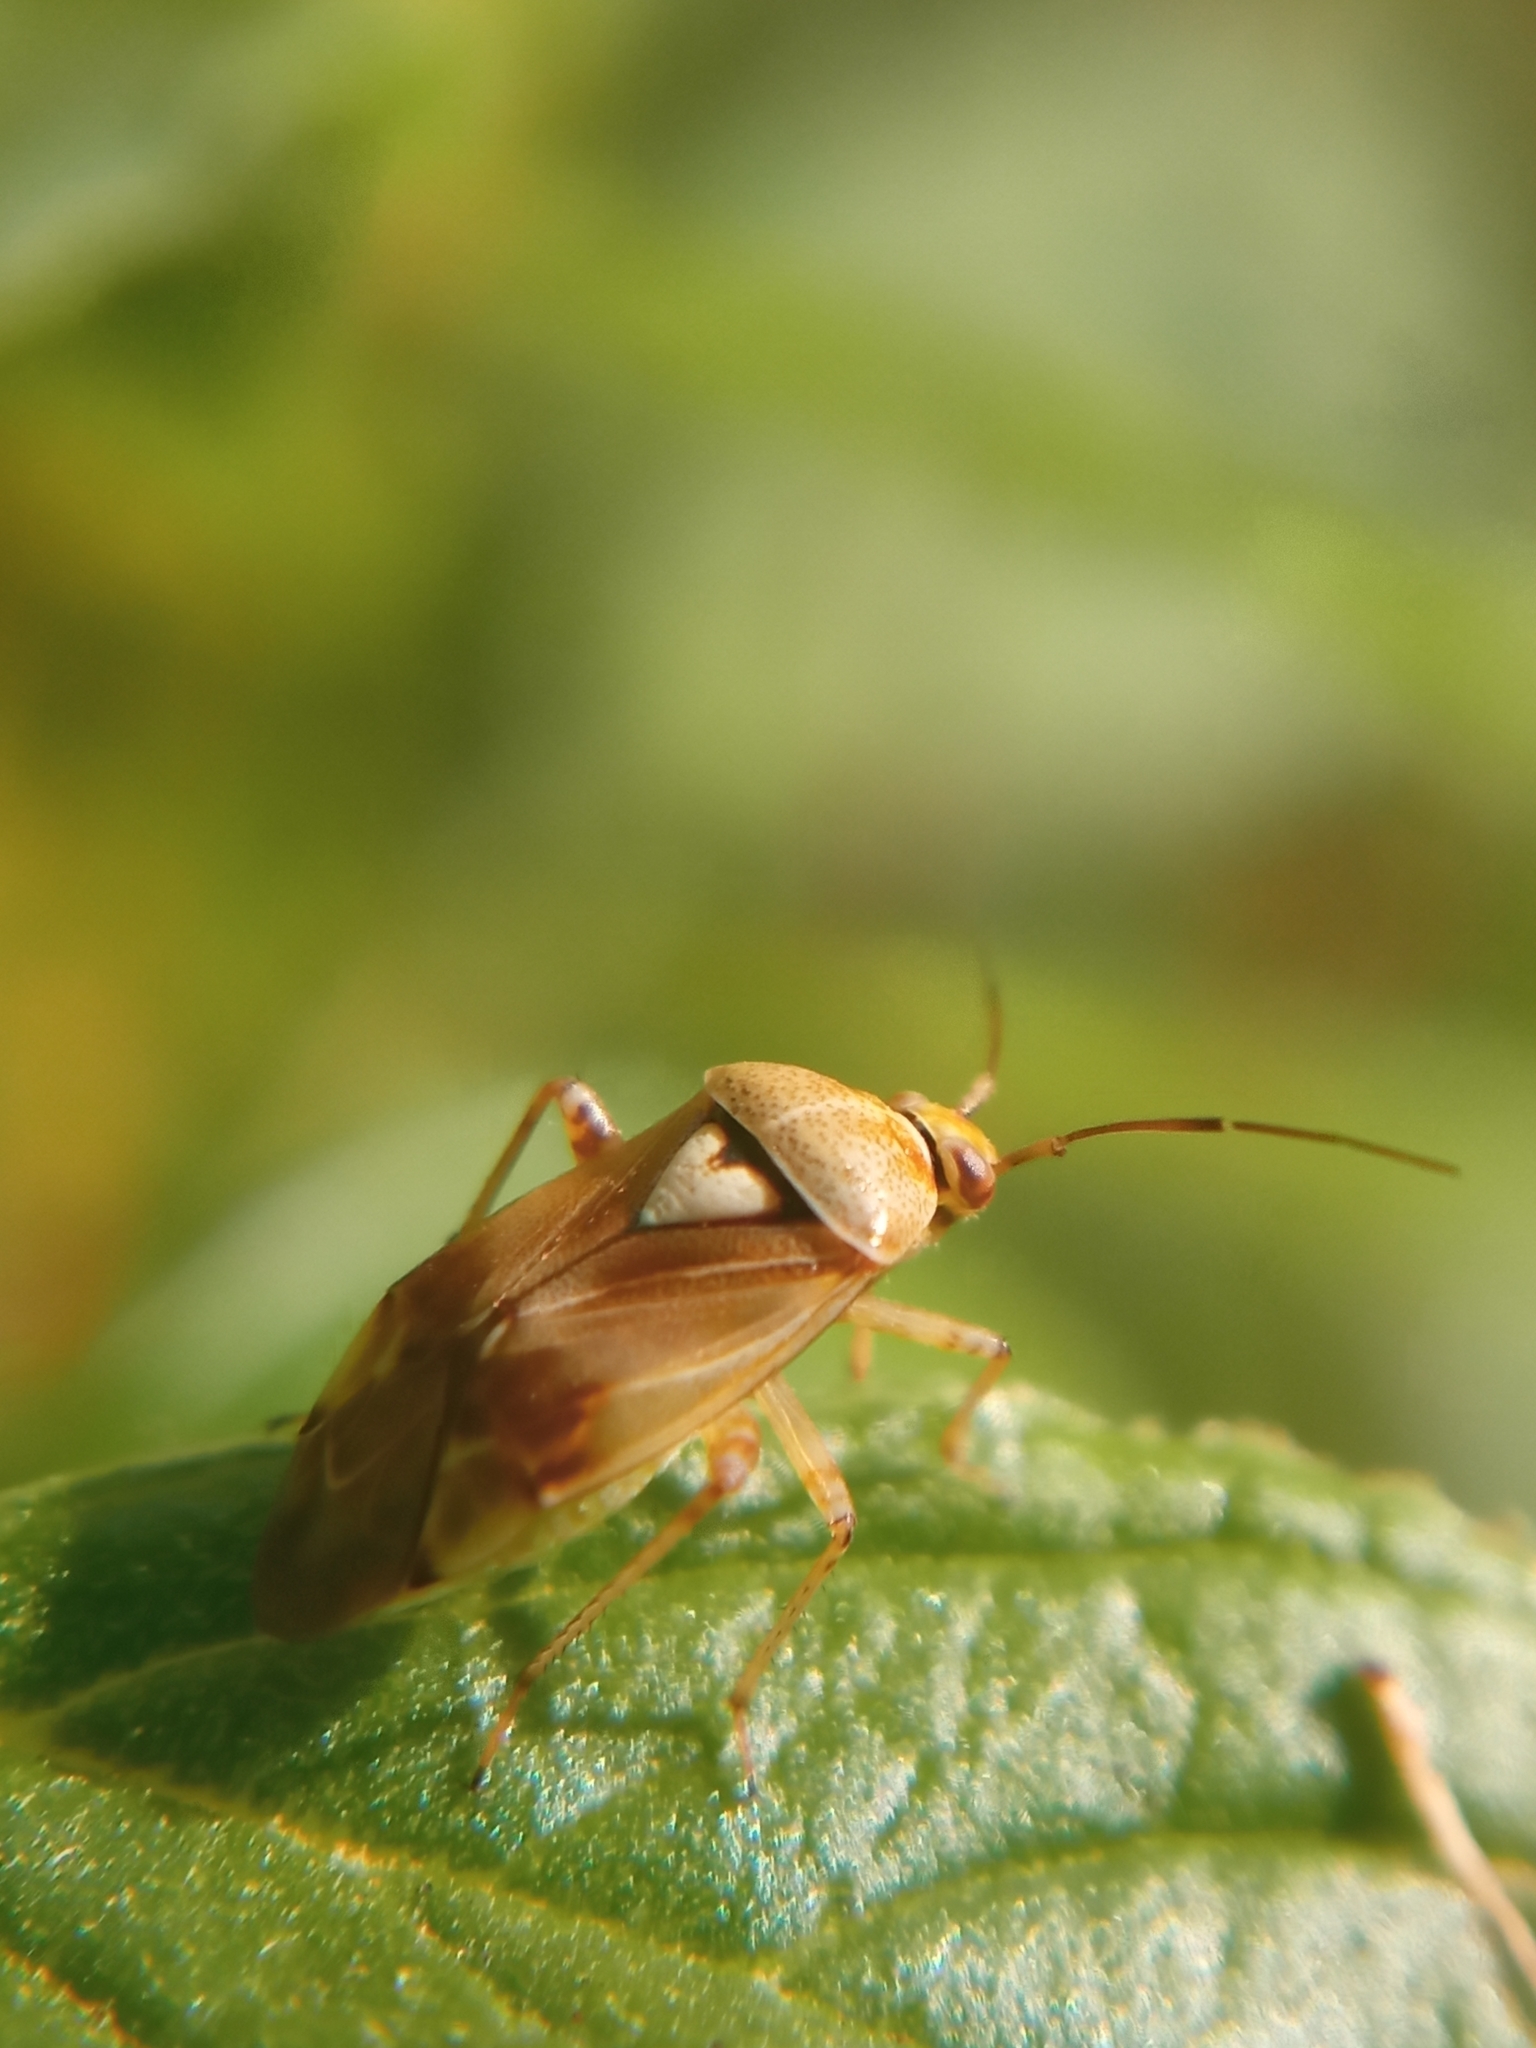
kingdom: Animalia
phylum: Arthropoda
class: Insecta
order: Hemiptera
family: Miridae
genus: Lygus
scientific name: Lygus pratensis
